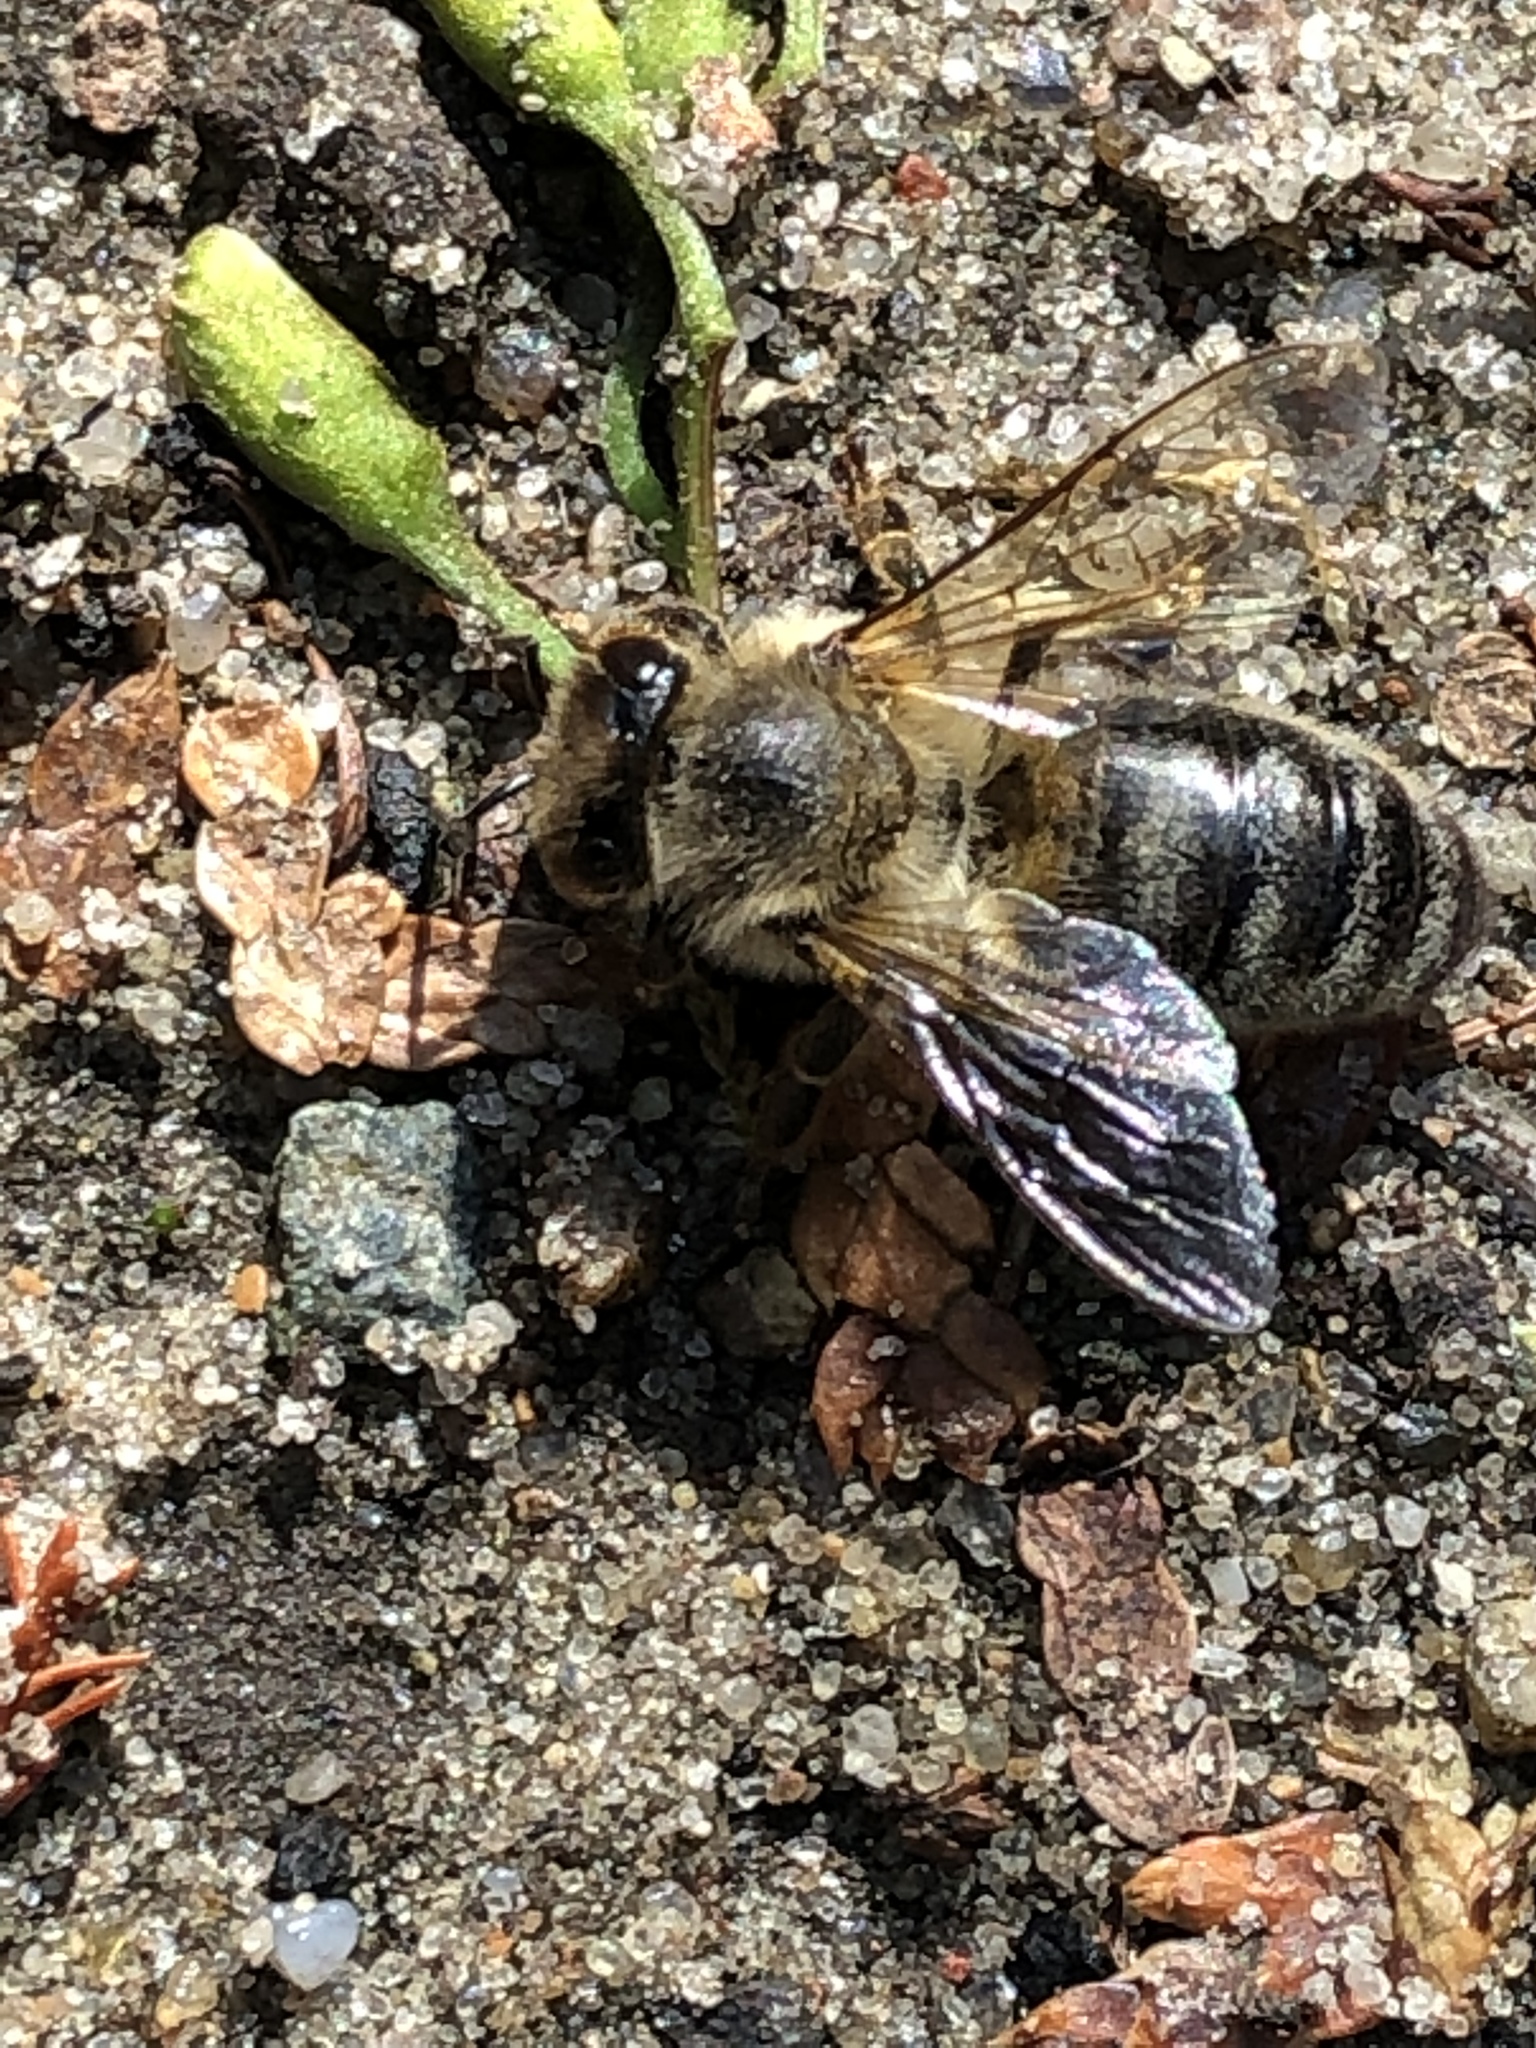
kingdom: Animalia
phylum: Arthropoda
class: Insecta
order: Hymenoptera
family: Apidae
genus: Apis
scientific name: Apis mellifera
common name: Honey bee
